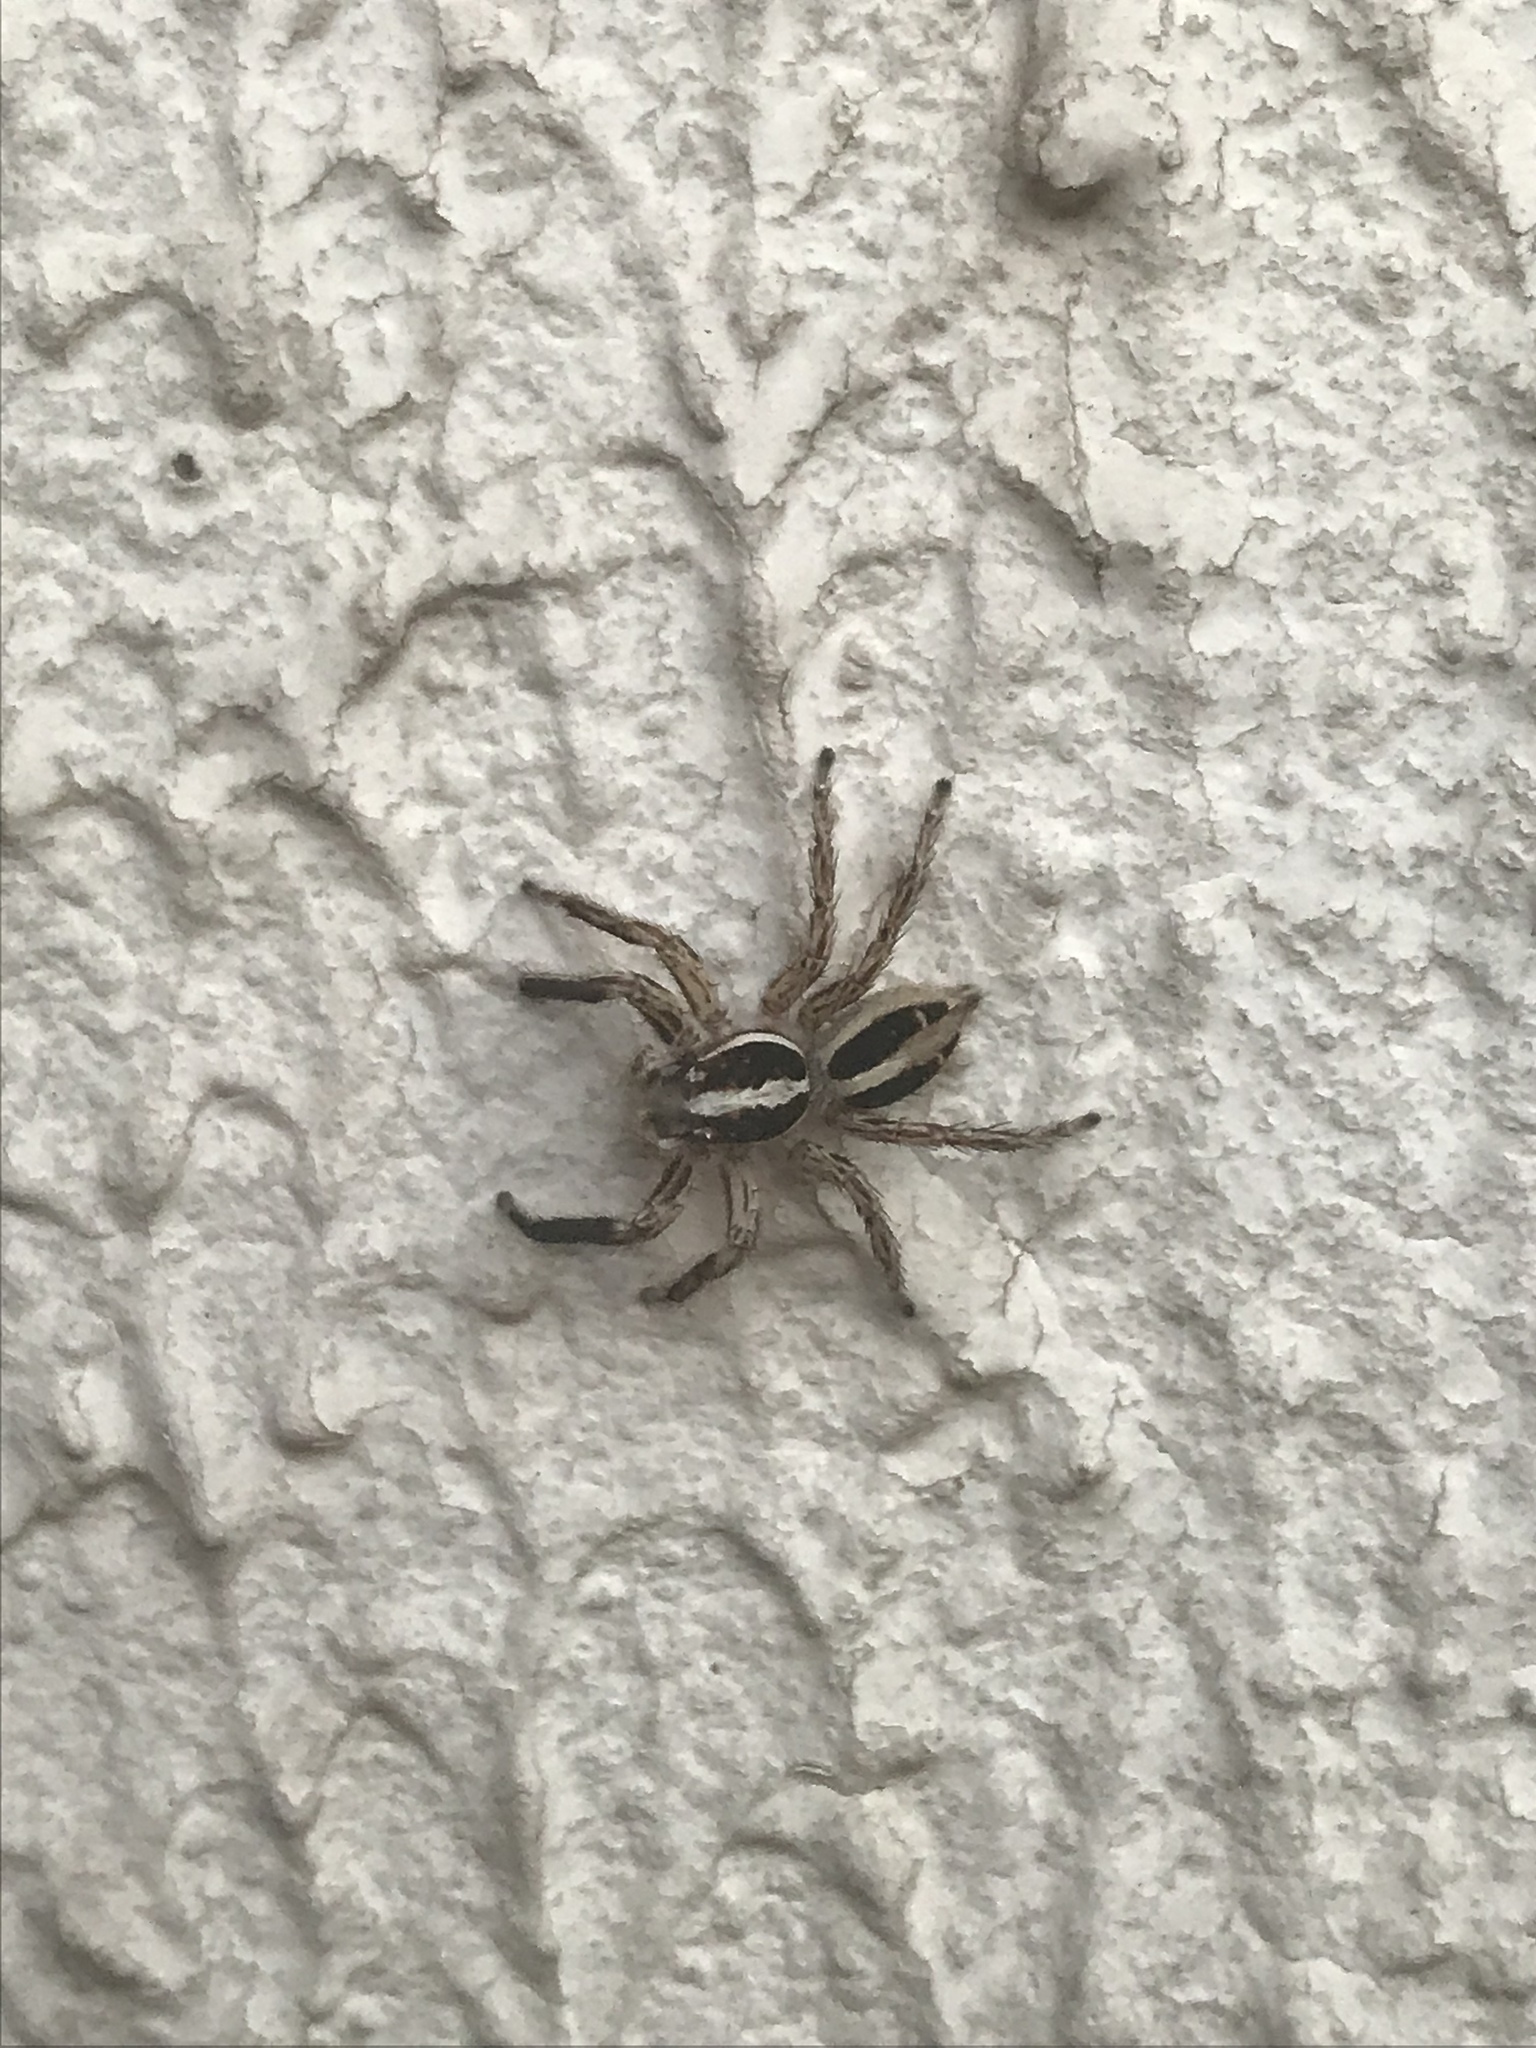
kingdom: Animalia
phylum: Arthropoda
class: Arachnida
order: Araneae
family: Salticidae
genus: Plexippus
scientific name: Plexippus paykulli
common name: Pantropical jumper
